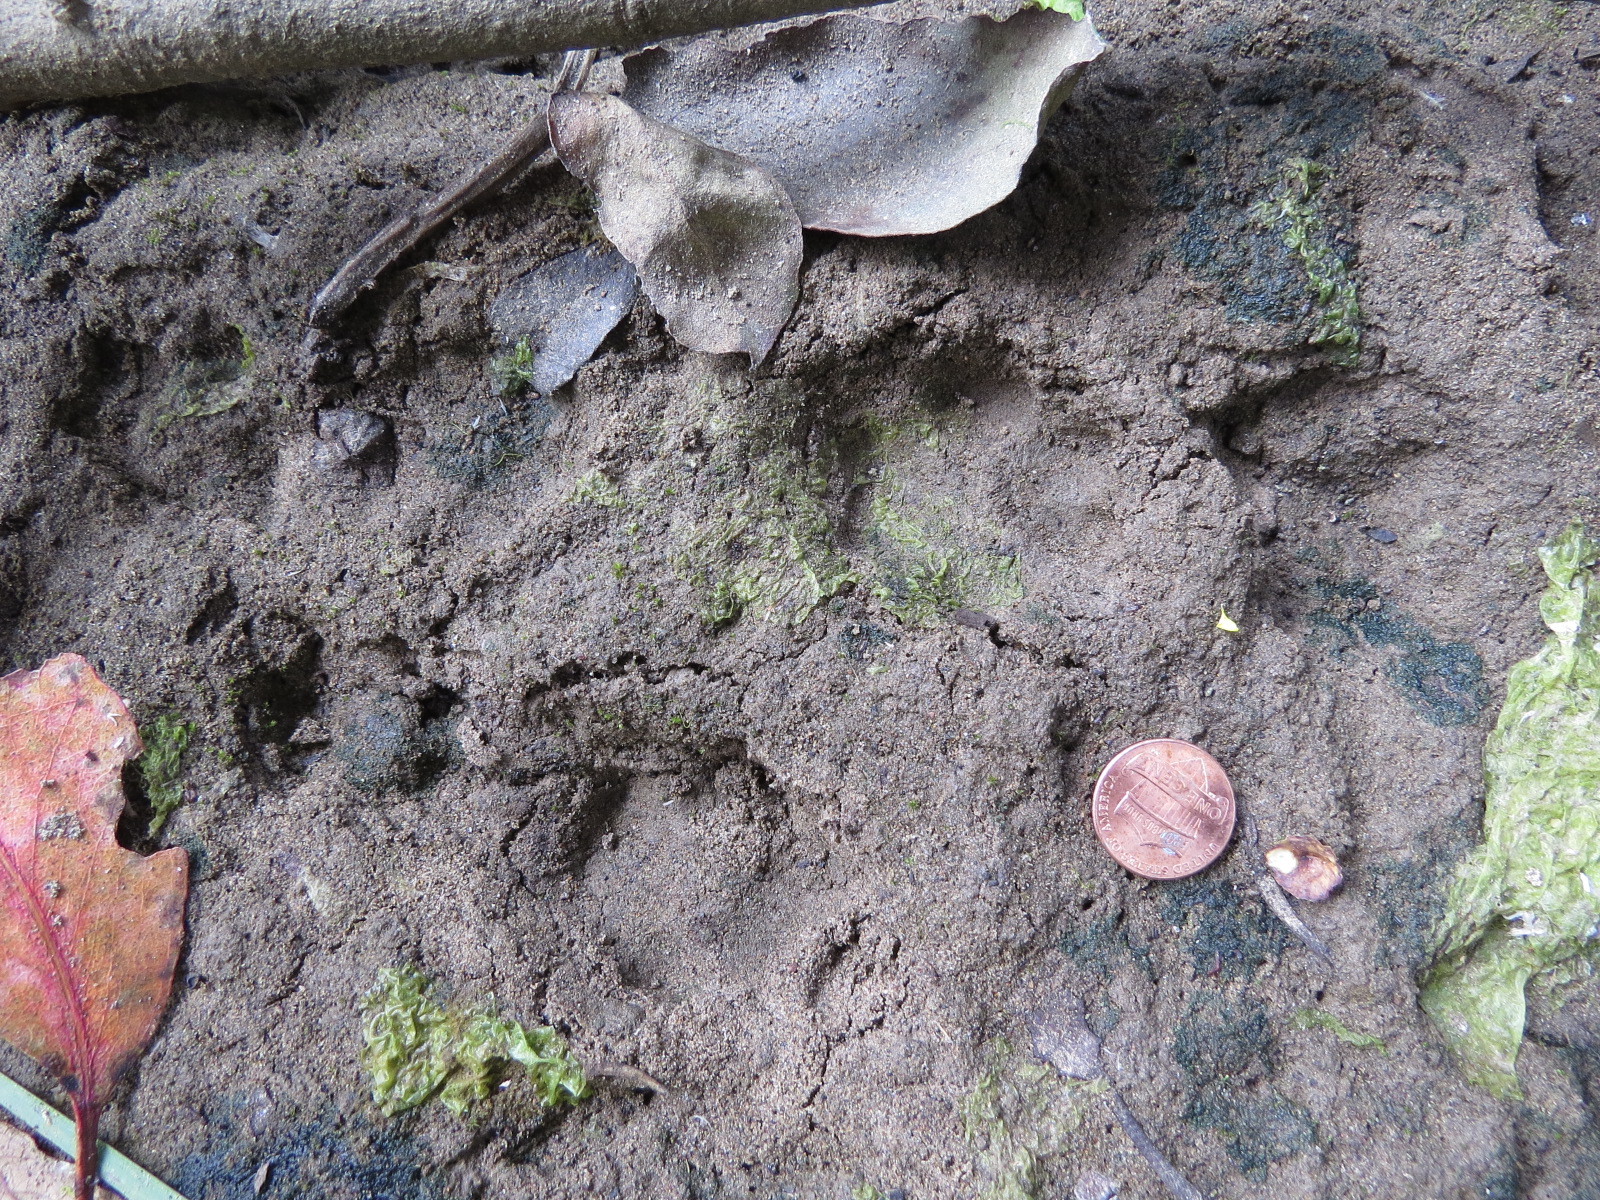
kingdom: Animalia
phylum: Chordata
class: Mammalia
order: Carnivora
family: Canidae
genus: Urocyon
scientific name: Urocyon cinereoargenteus
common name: Gray fox
